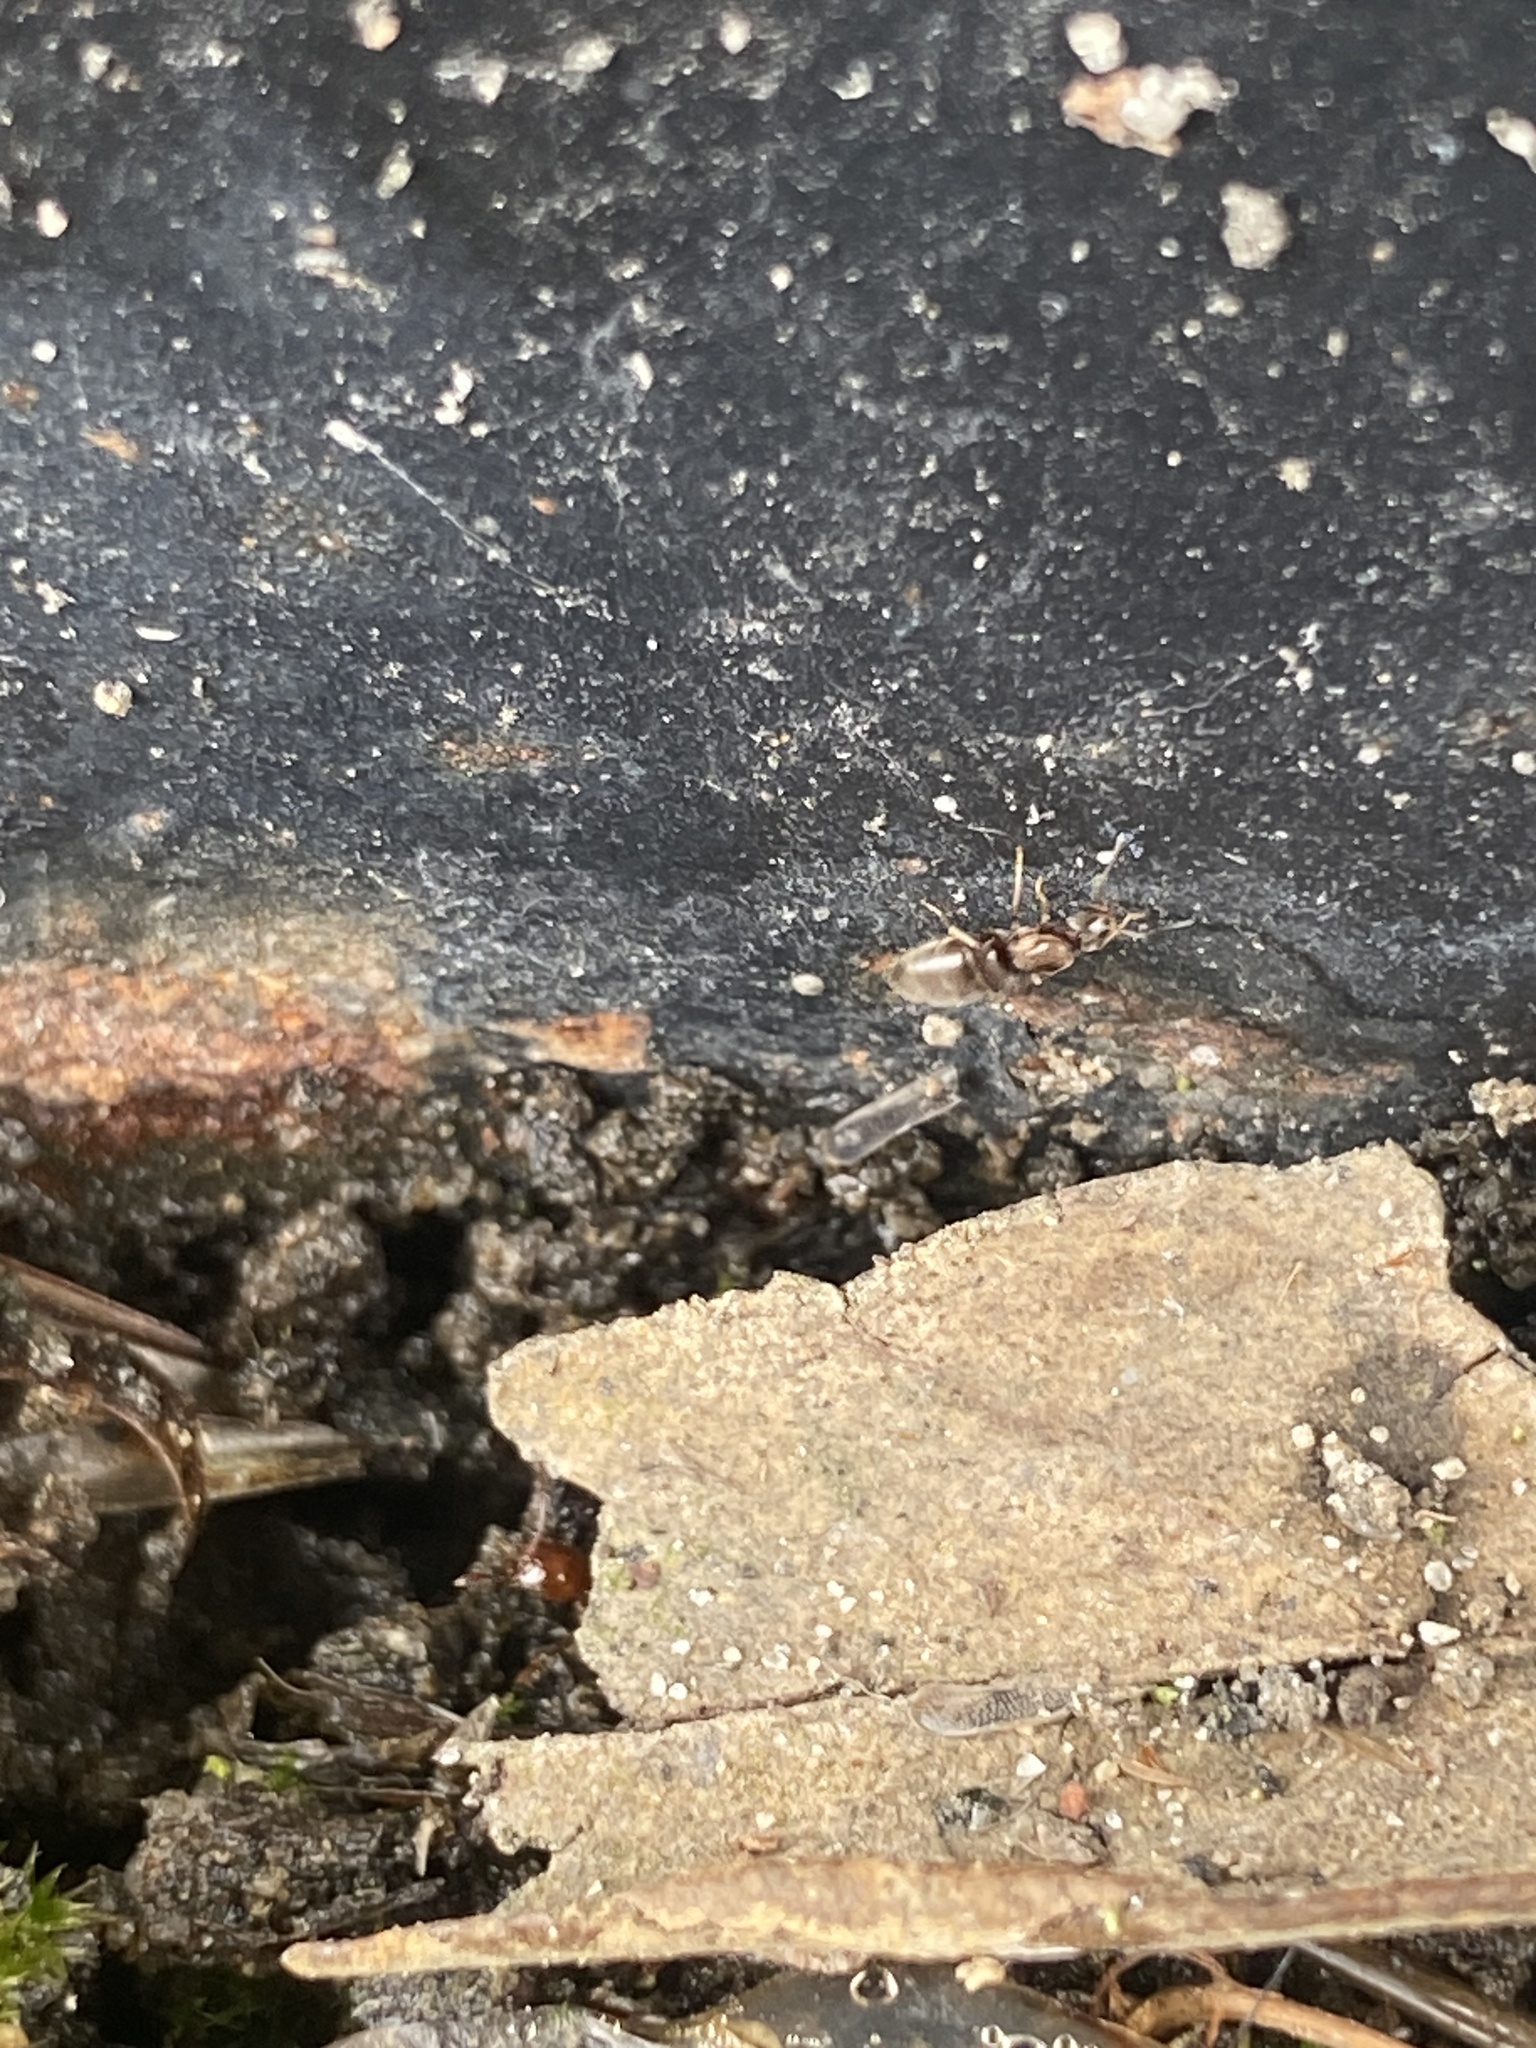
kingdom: Animalia
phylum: Arthropoda
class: Insecta
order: Hymenoptera
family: Formicidae
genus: Brachymyrmex
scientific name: Brachymyrmex patagonicus
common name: Dark rover ant
